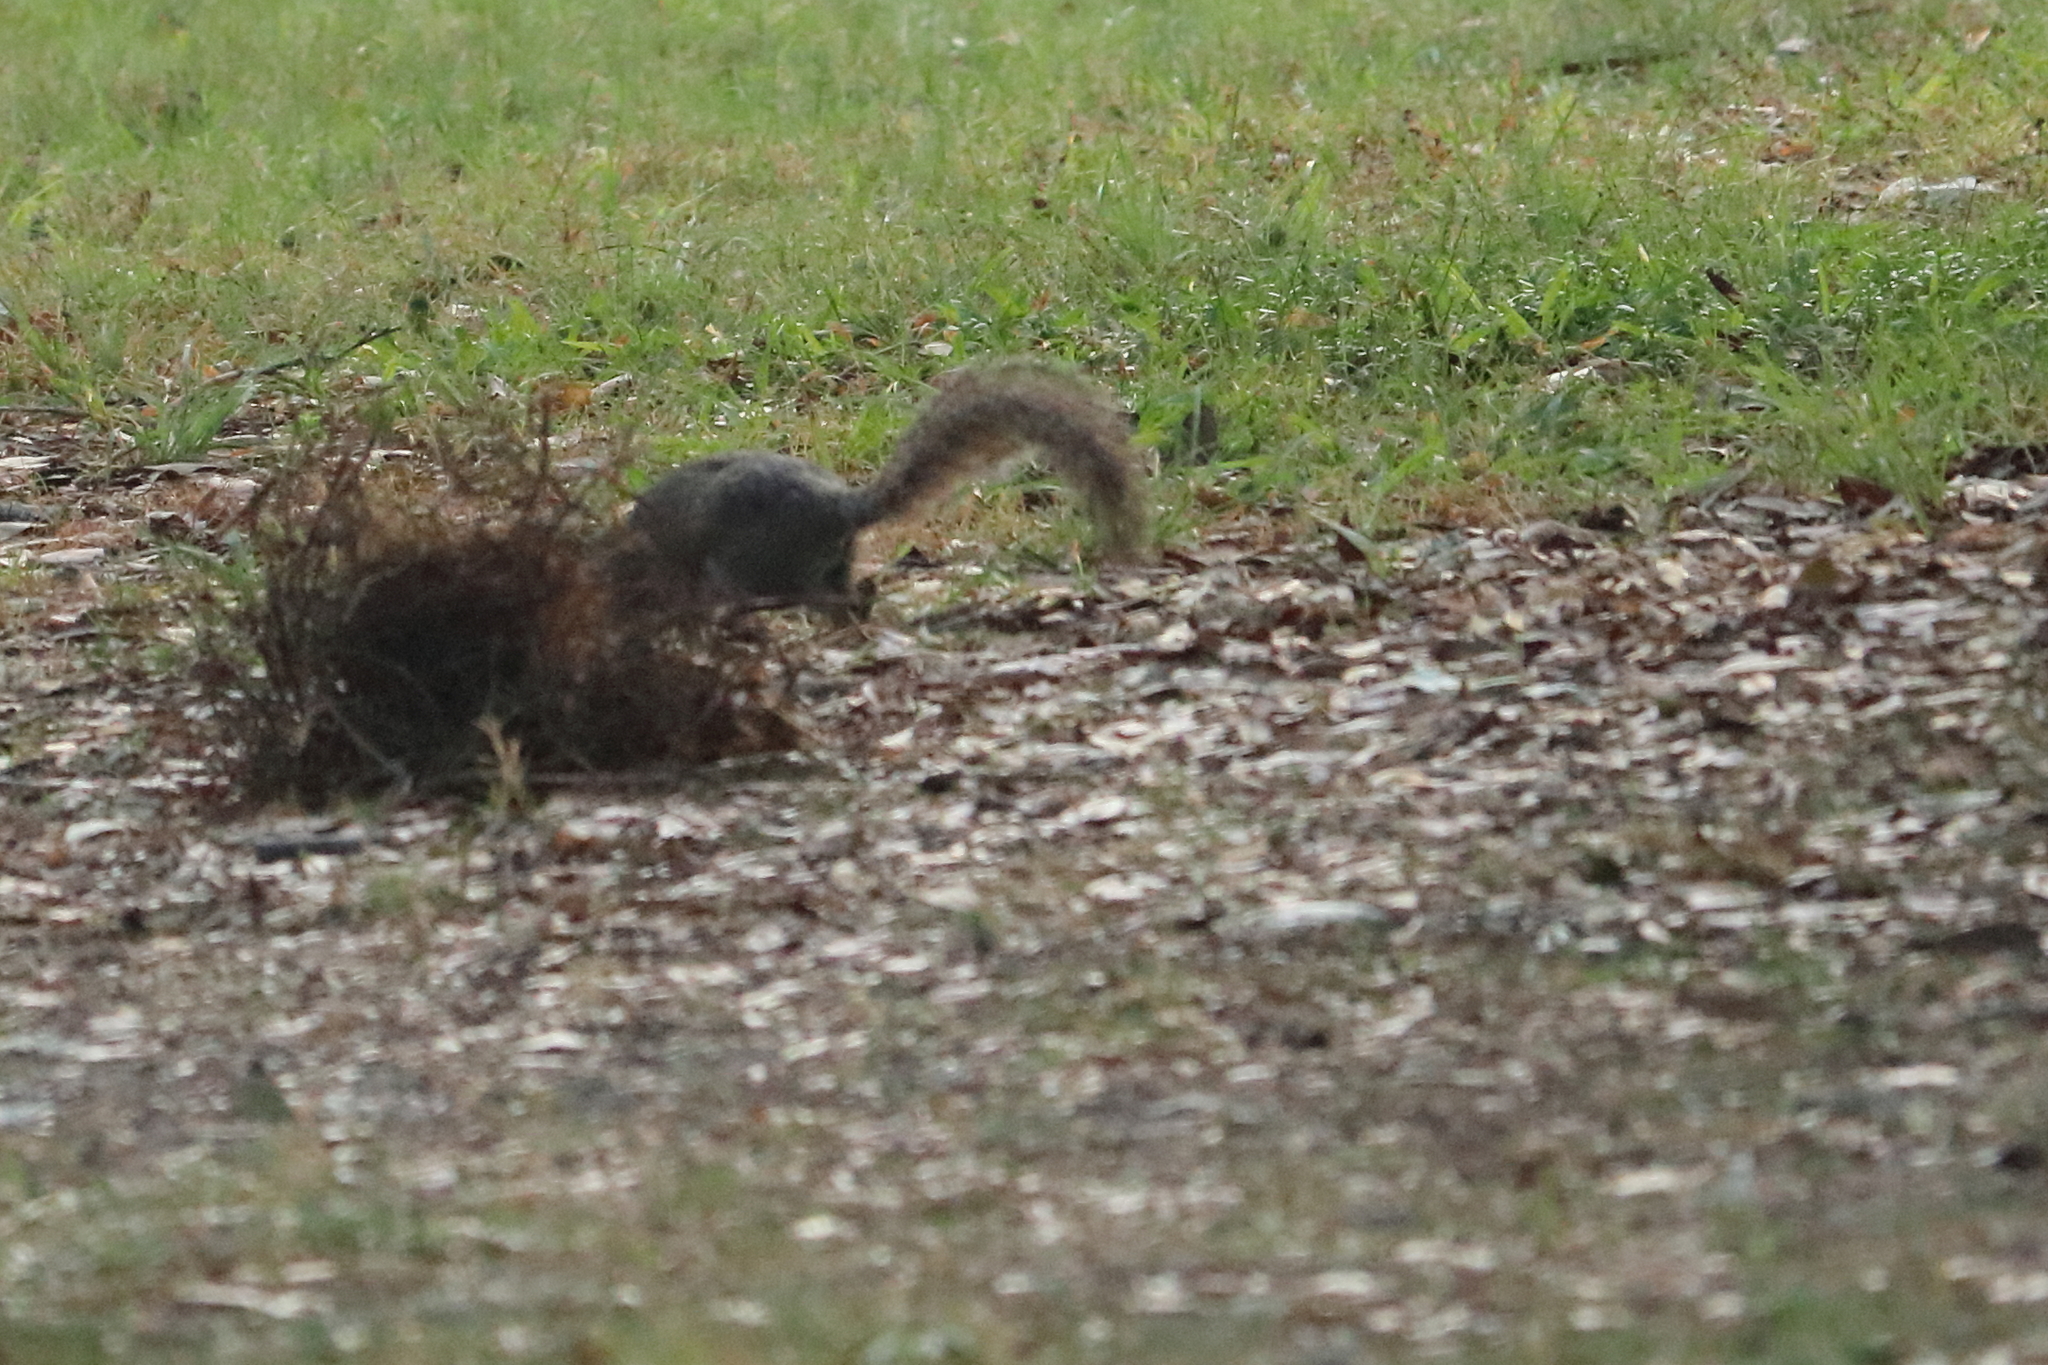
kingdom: Animalia
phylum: Chordata
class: Mammalia
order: Rodentia
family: Sciuridae
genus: Sciurus
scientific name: Sciurus carolinensis
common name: Eastern gray squirrel
